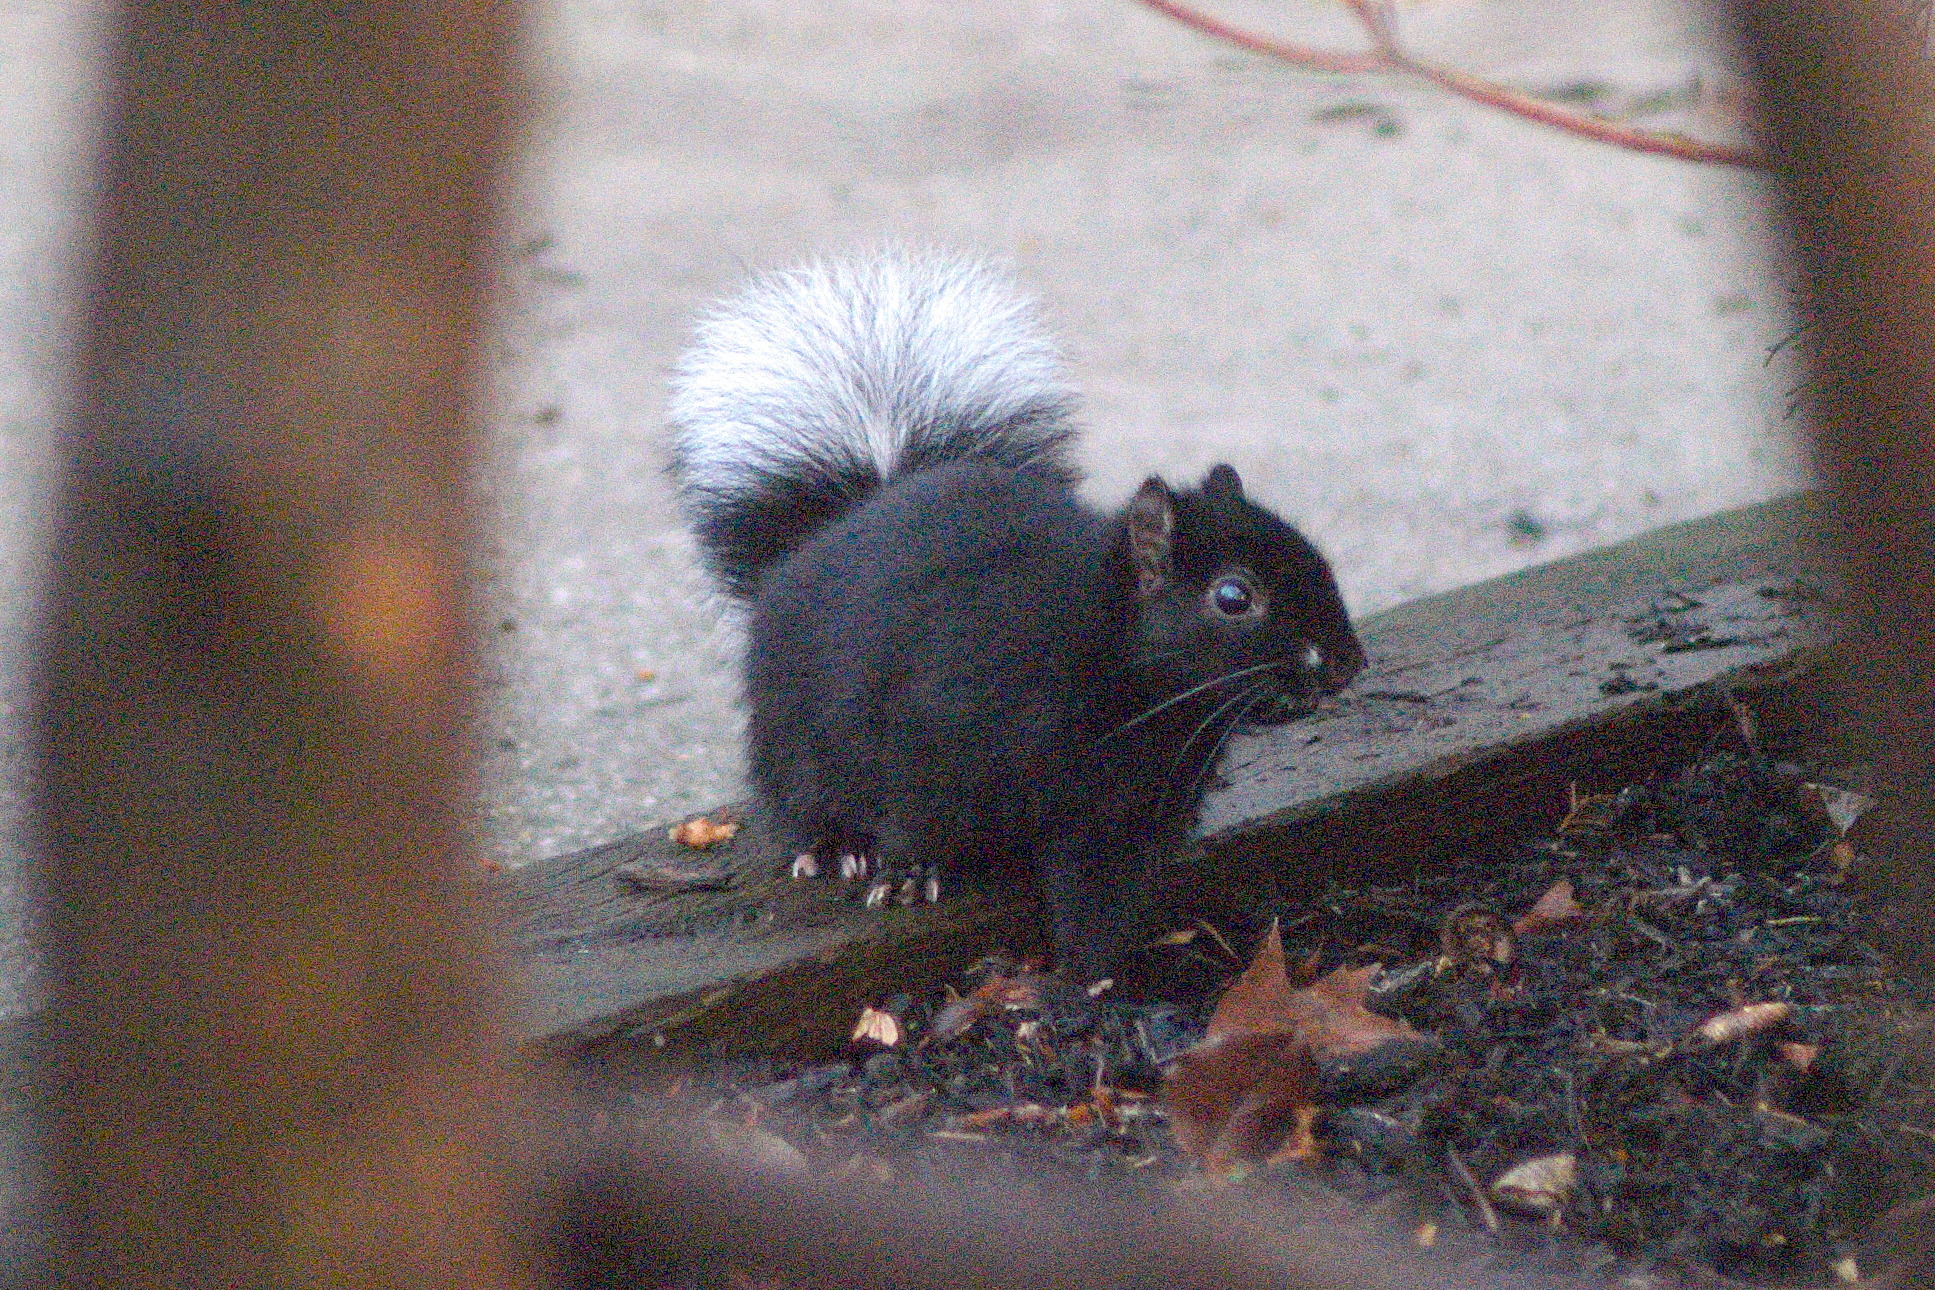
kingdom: Animalia
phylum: Chordata
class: Mammalia
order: Rodentia
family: Sciuridae
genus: Sciurus
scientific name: Sciurus carolinensis
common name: Eastern gray squirrel
